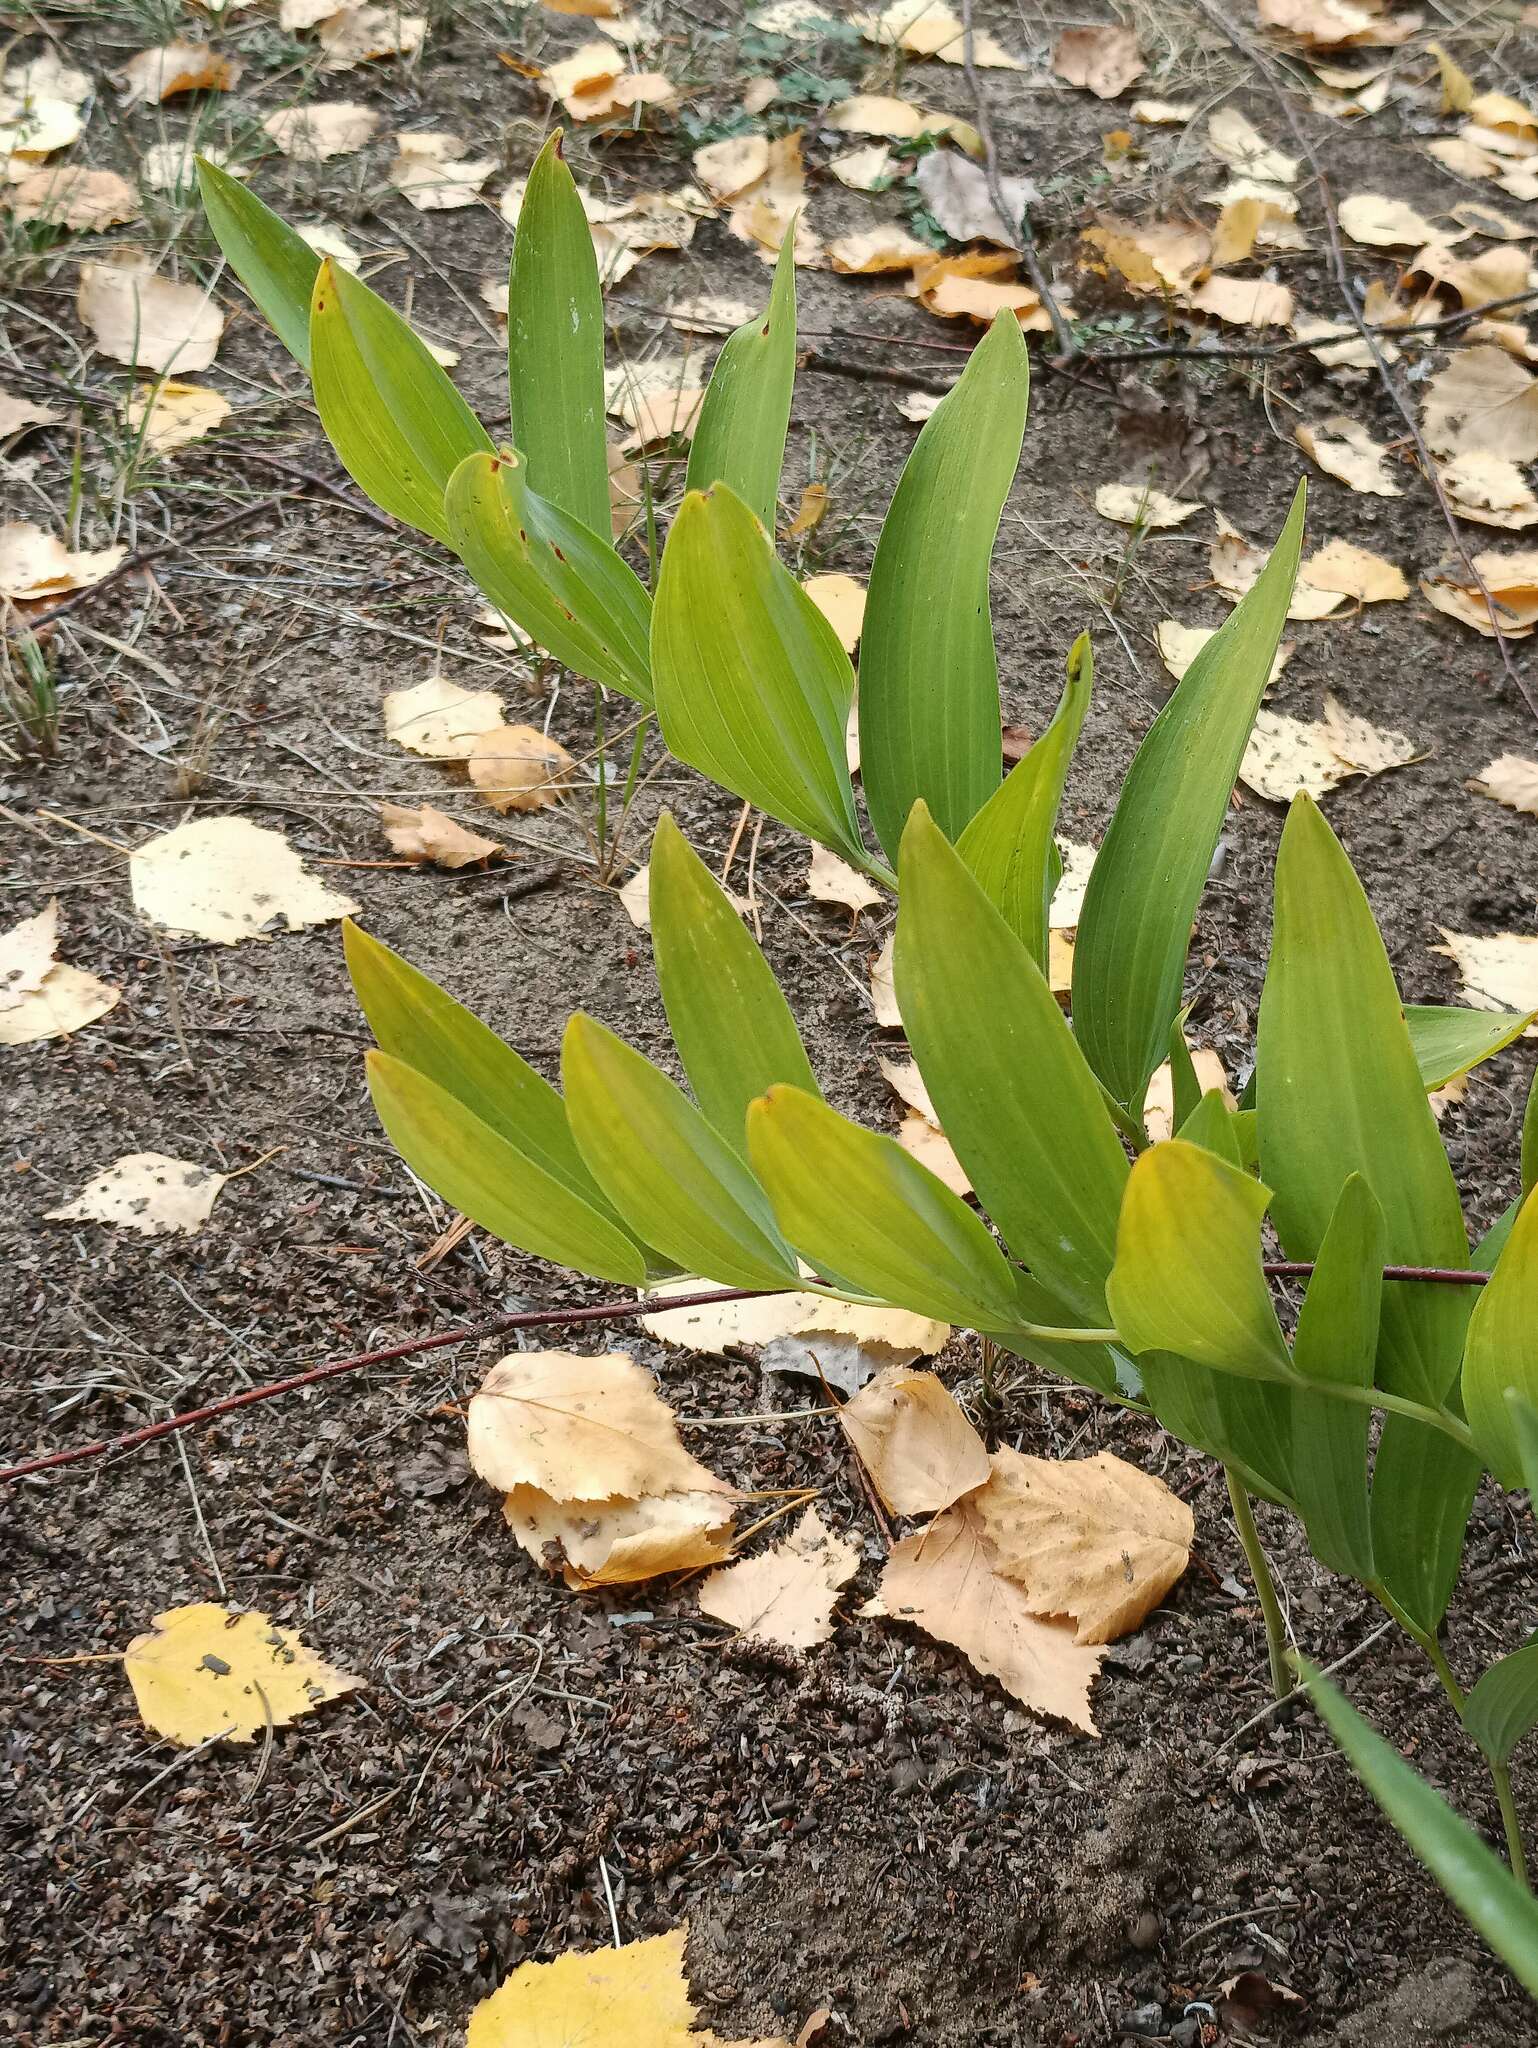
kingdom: Plantae
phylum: Tracheophyta
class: Liliopsida
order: Asparagales
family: Asparagaceae
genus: Polygonatum
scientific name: Polygonatum odoratum
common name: Angular solomon's-seal
